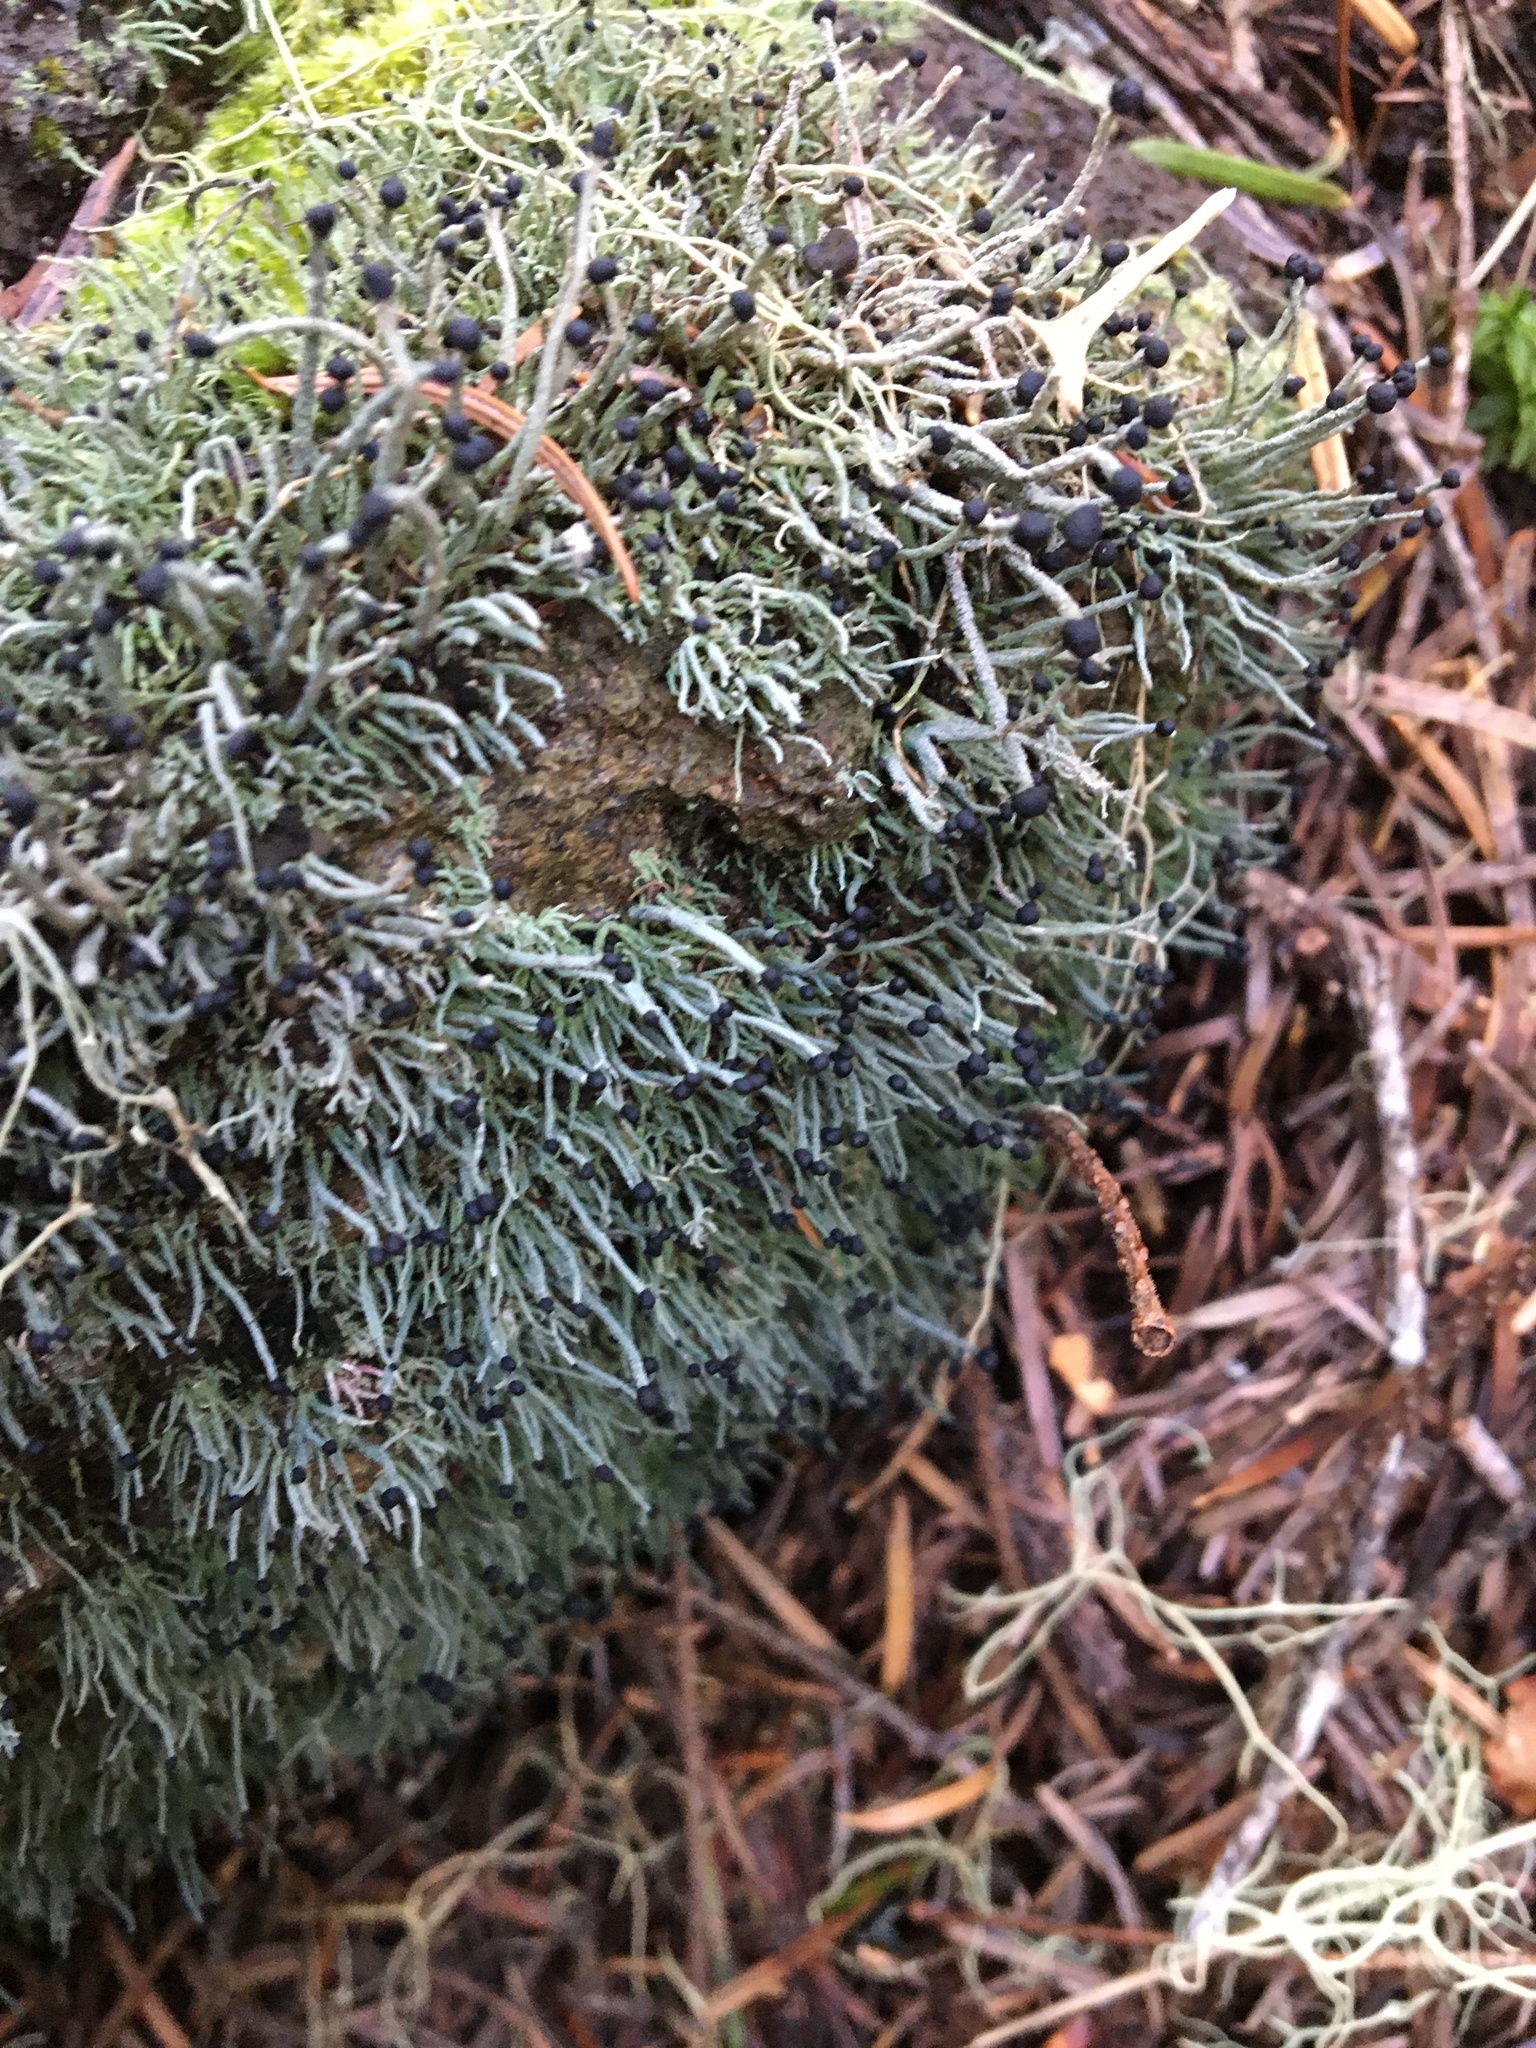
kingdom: Fungi
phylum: Ascomycota
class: Lecanoromycetes
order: Lecanorales
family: Cladoniaceae
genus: Pilophorus
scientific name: Pilophorus acicularis
